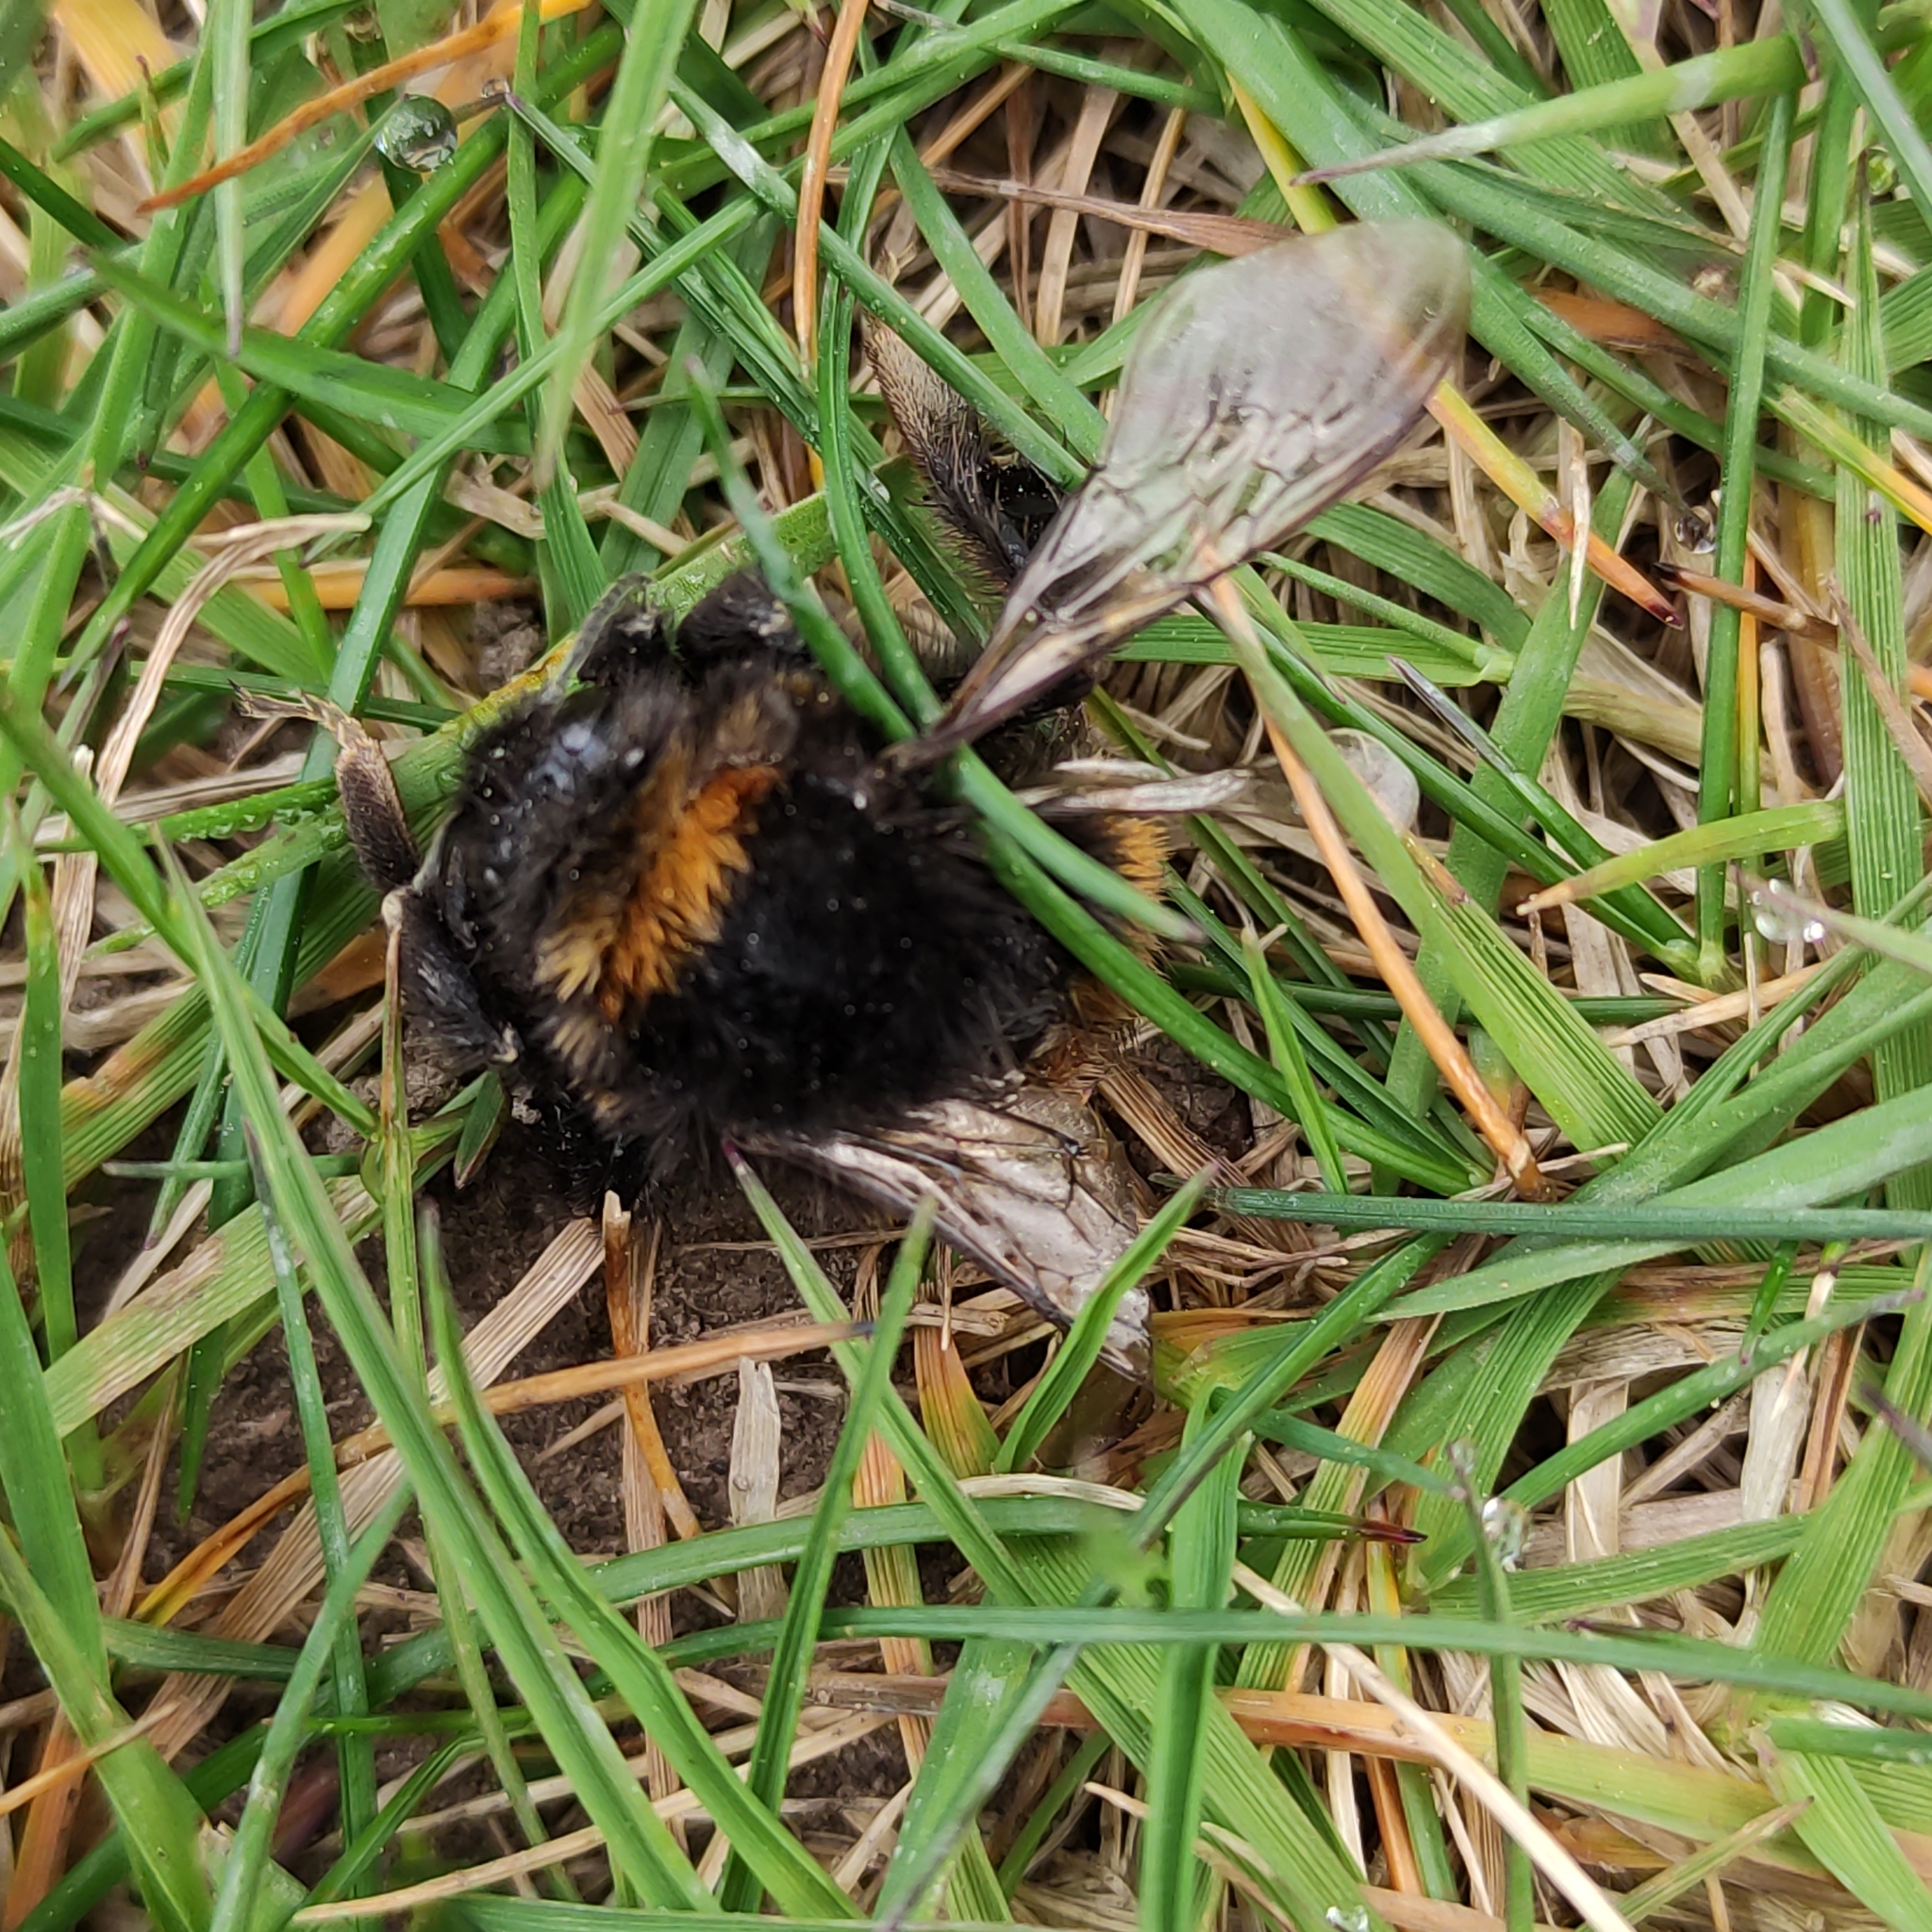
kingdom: Animalia
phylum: Arthropoda
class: Insecta
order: Hymenoptera
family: Apidae
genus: Bombus
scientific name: Bombus terrestris
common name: Buff-tailed bumblebee
